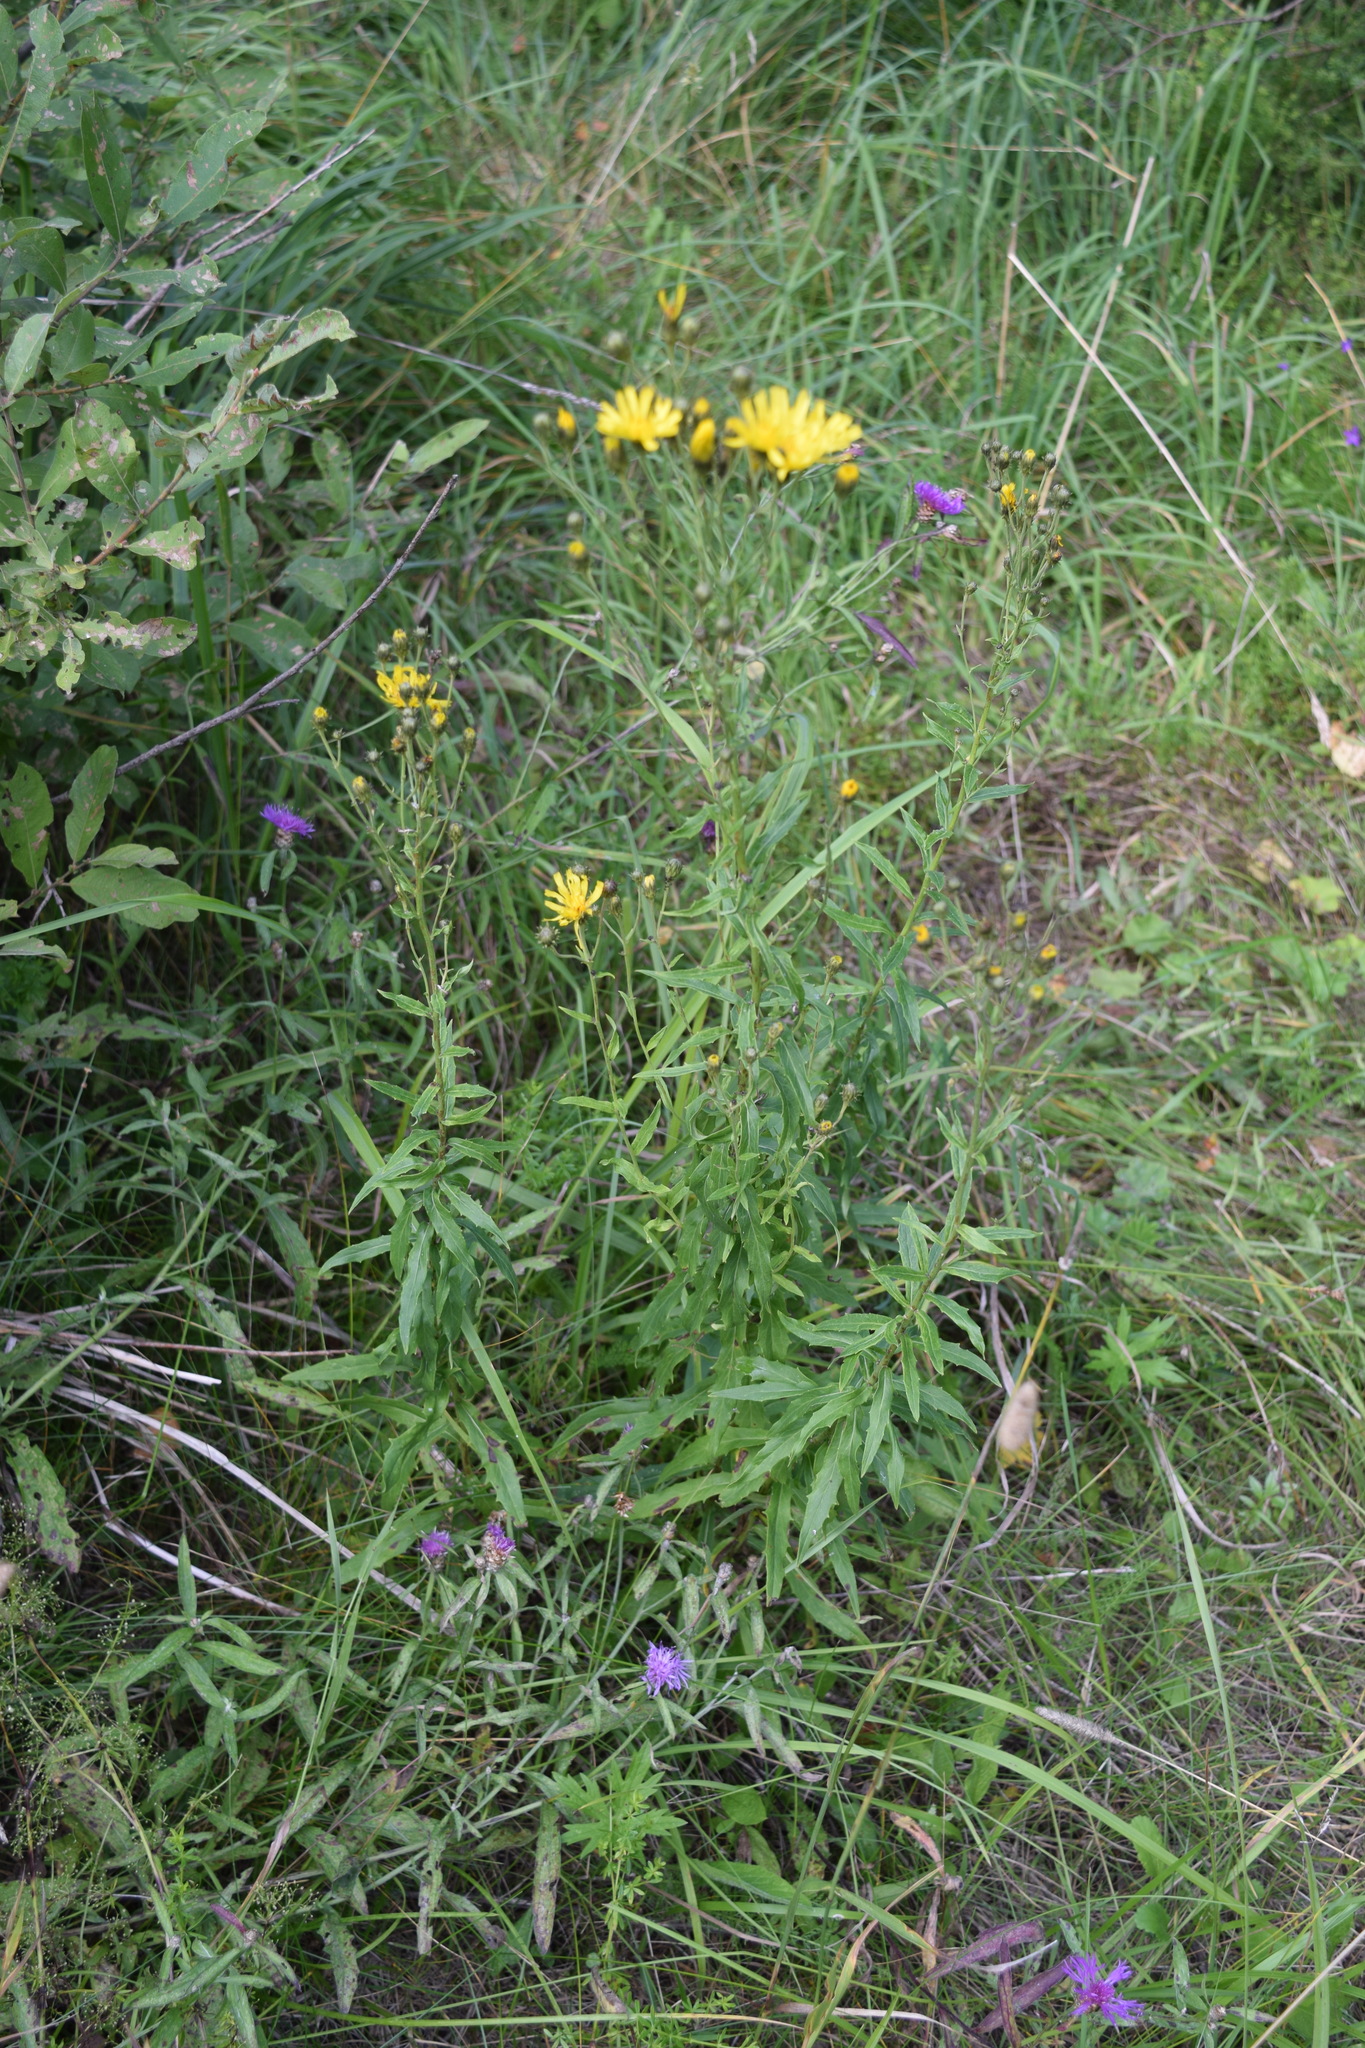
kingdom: Plantae
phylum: Tracheophyta
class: Magnoliopsida
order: Asterales
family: Asteraceae
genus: Hieracium
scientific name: Hieracium umbellatum
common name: Northern hawkweed
